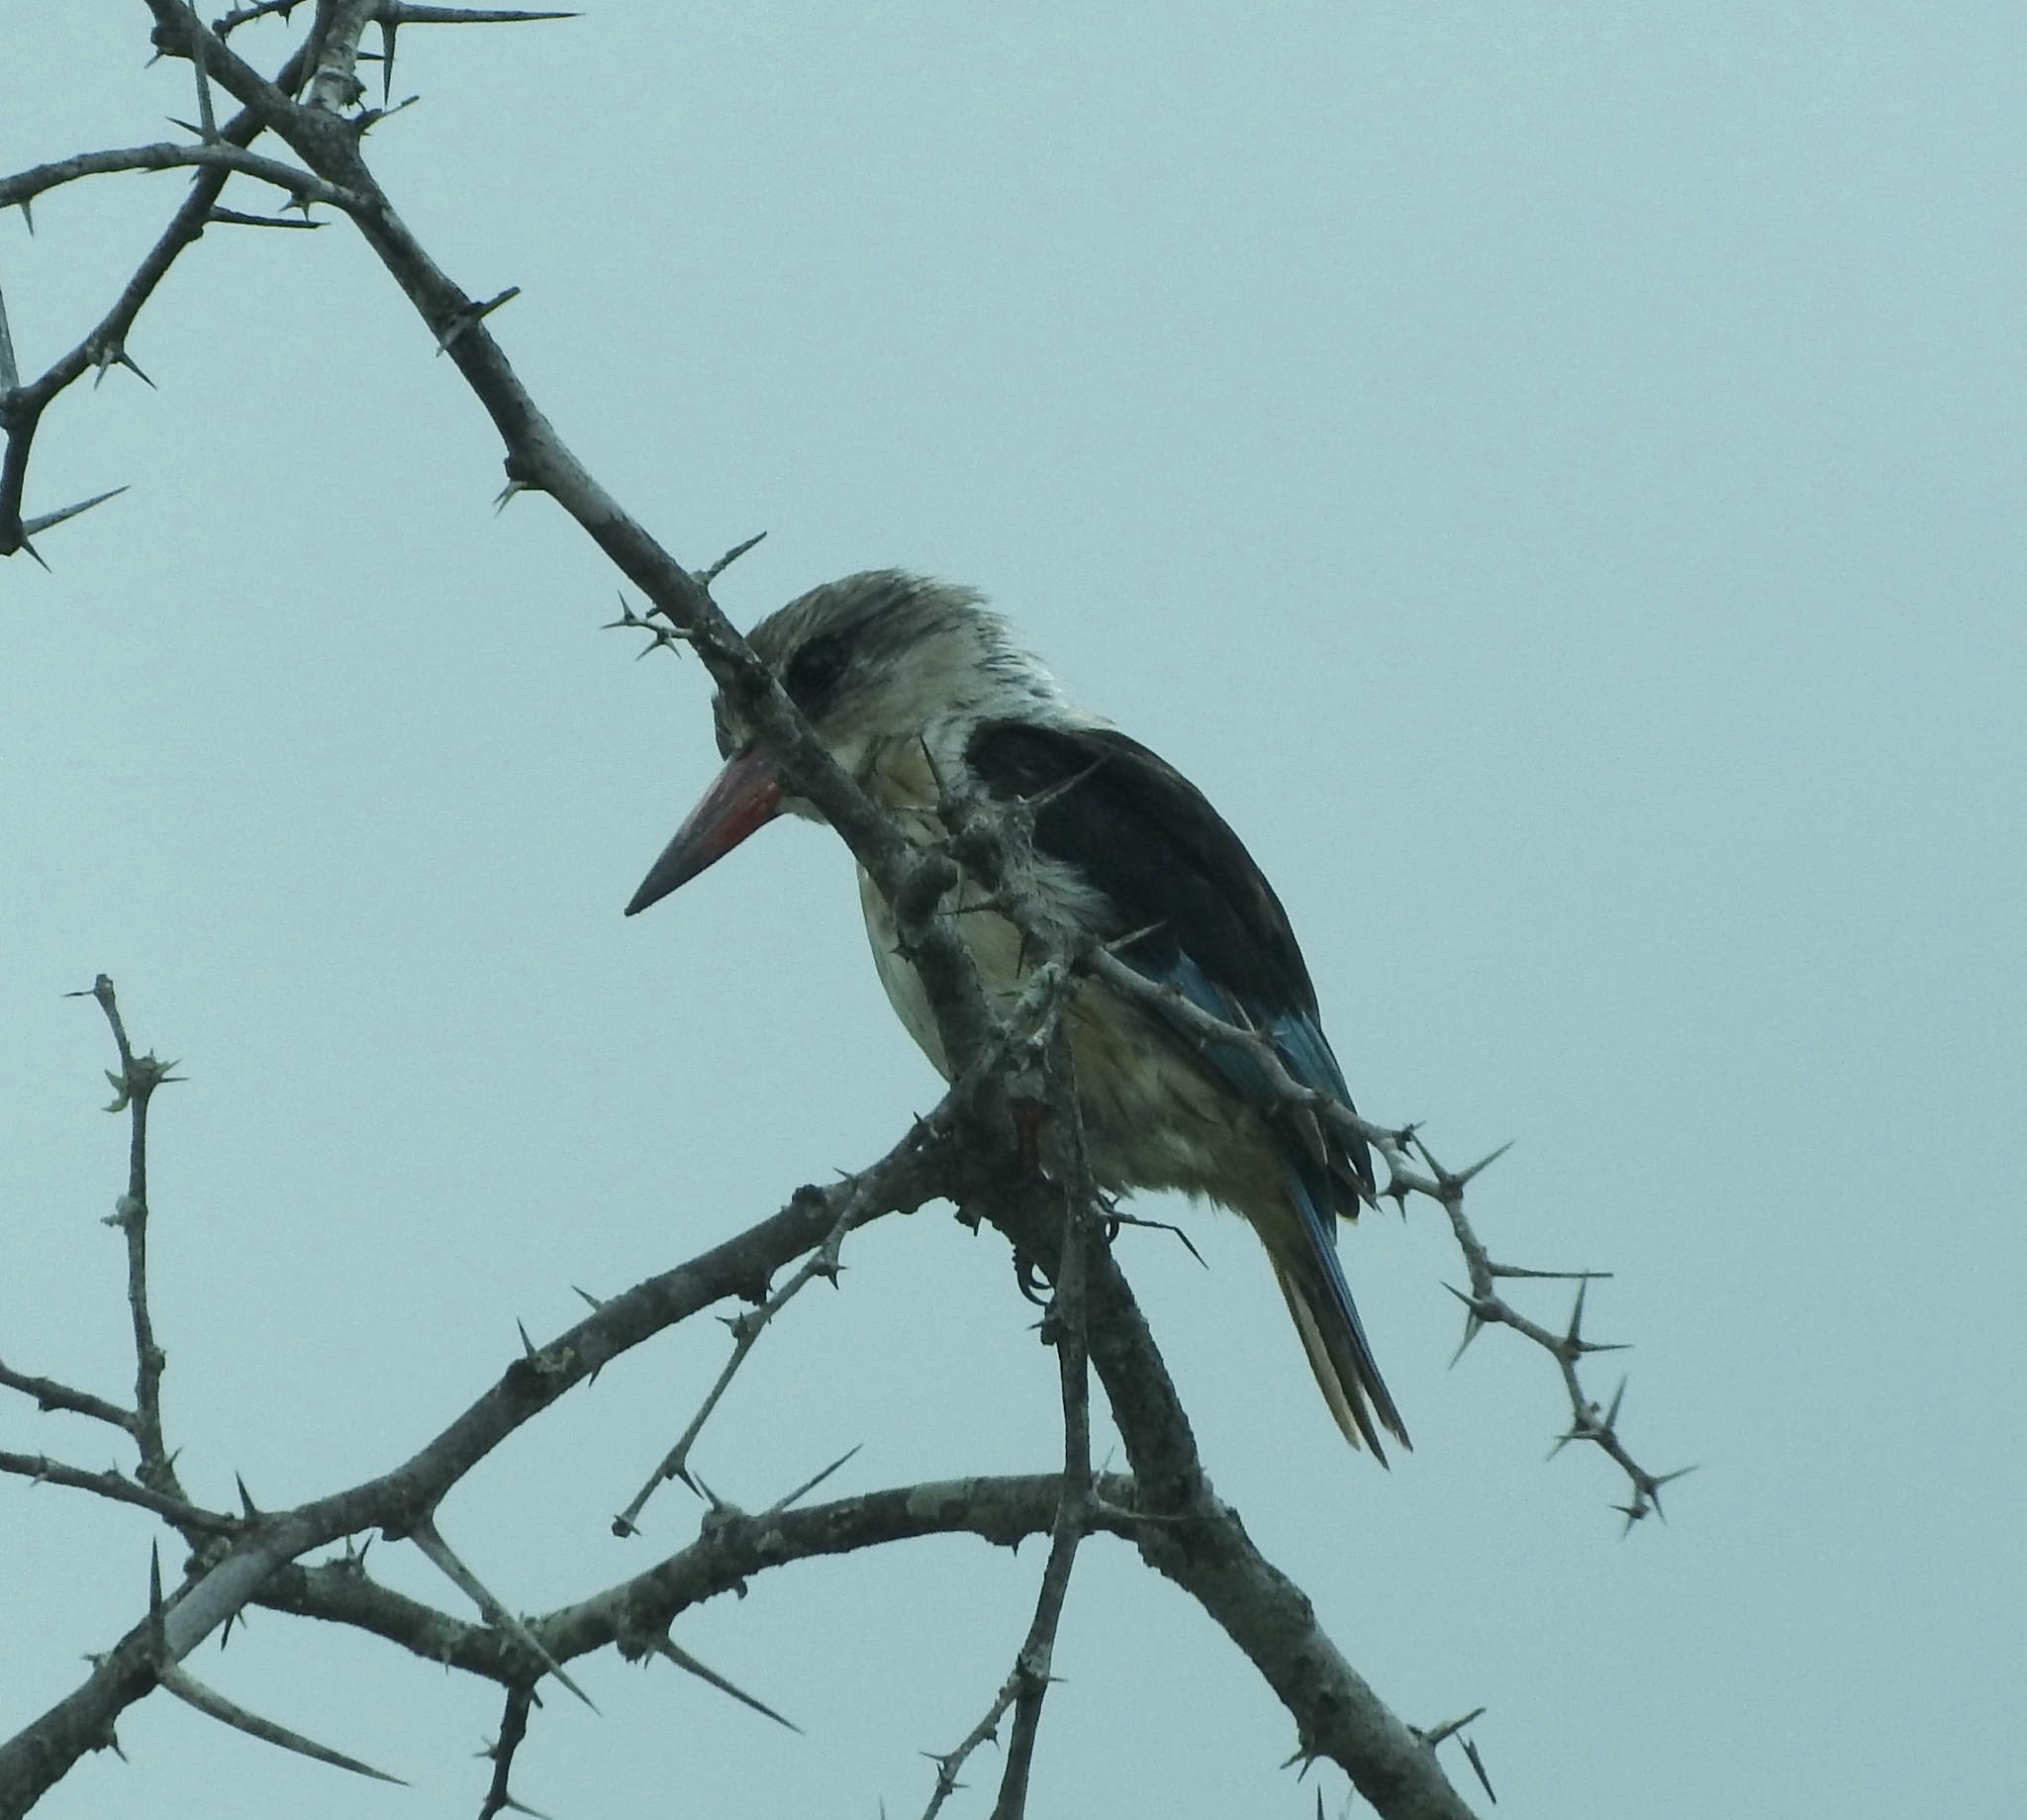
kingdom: Animalia
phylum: Chordata
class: Aves
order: Coraciiformes
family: Alcedinidae
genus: Halcyon
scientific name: Halcyon albiventris
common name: Brown-hooded kingfisher
